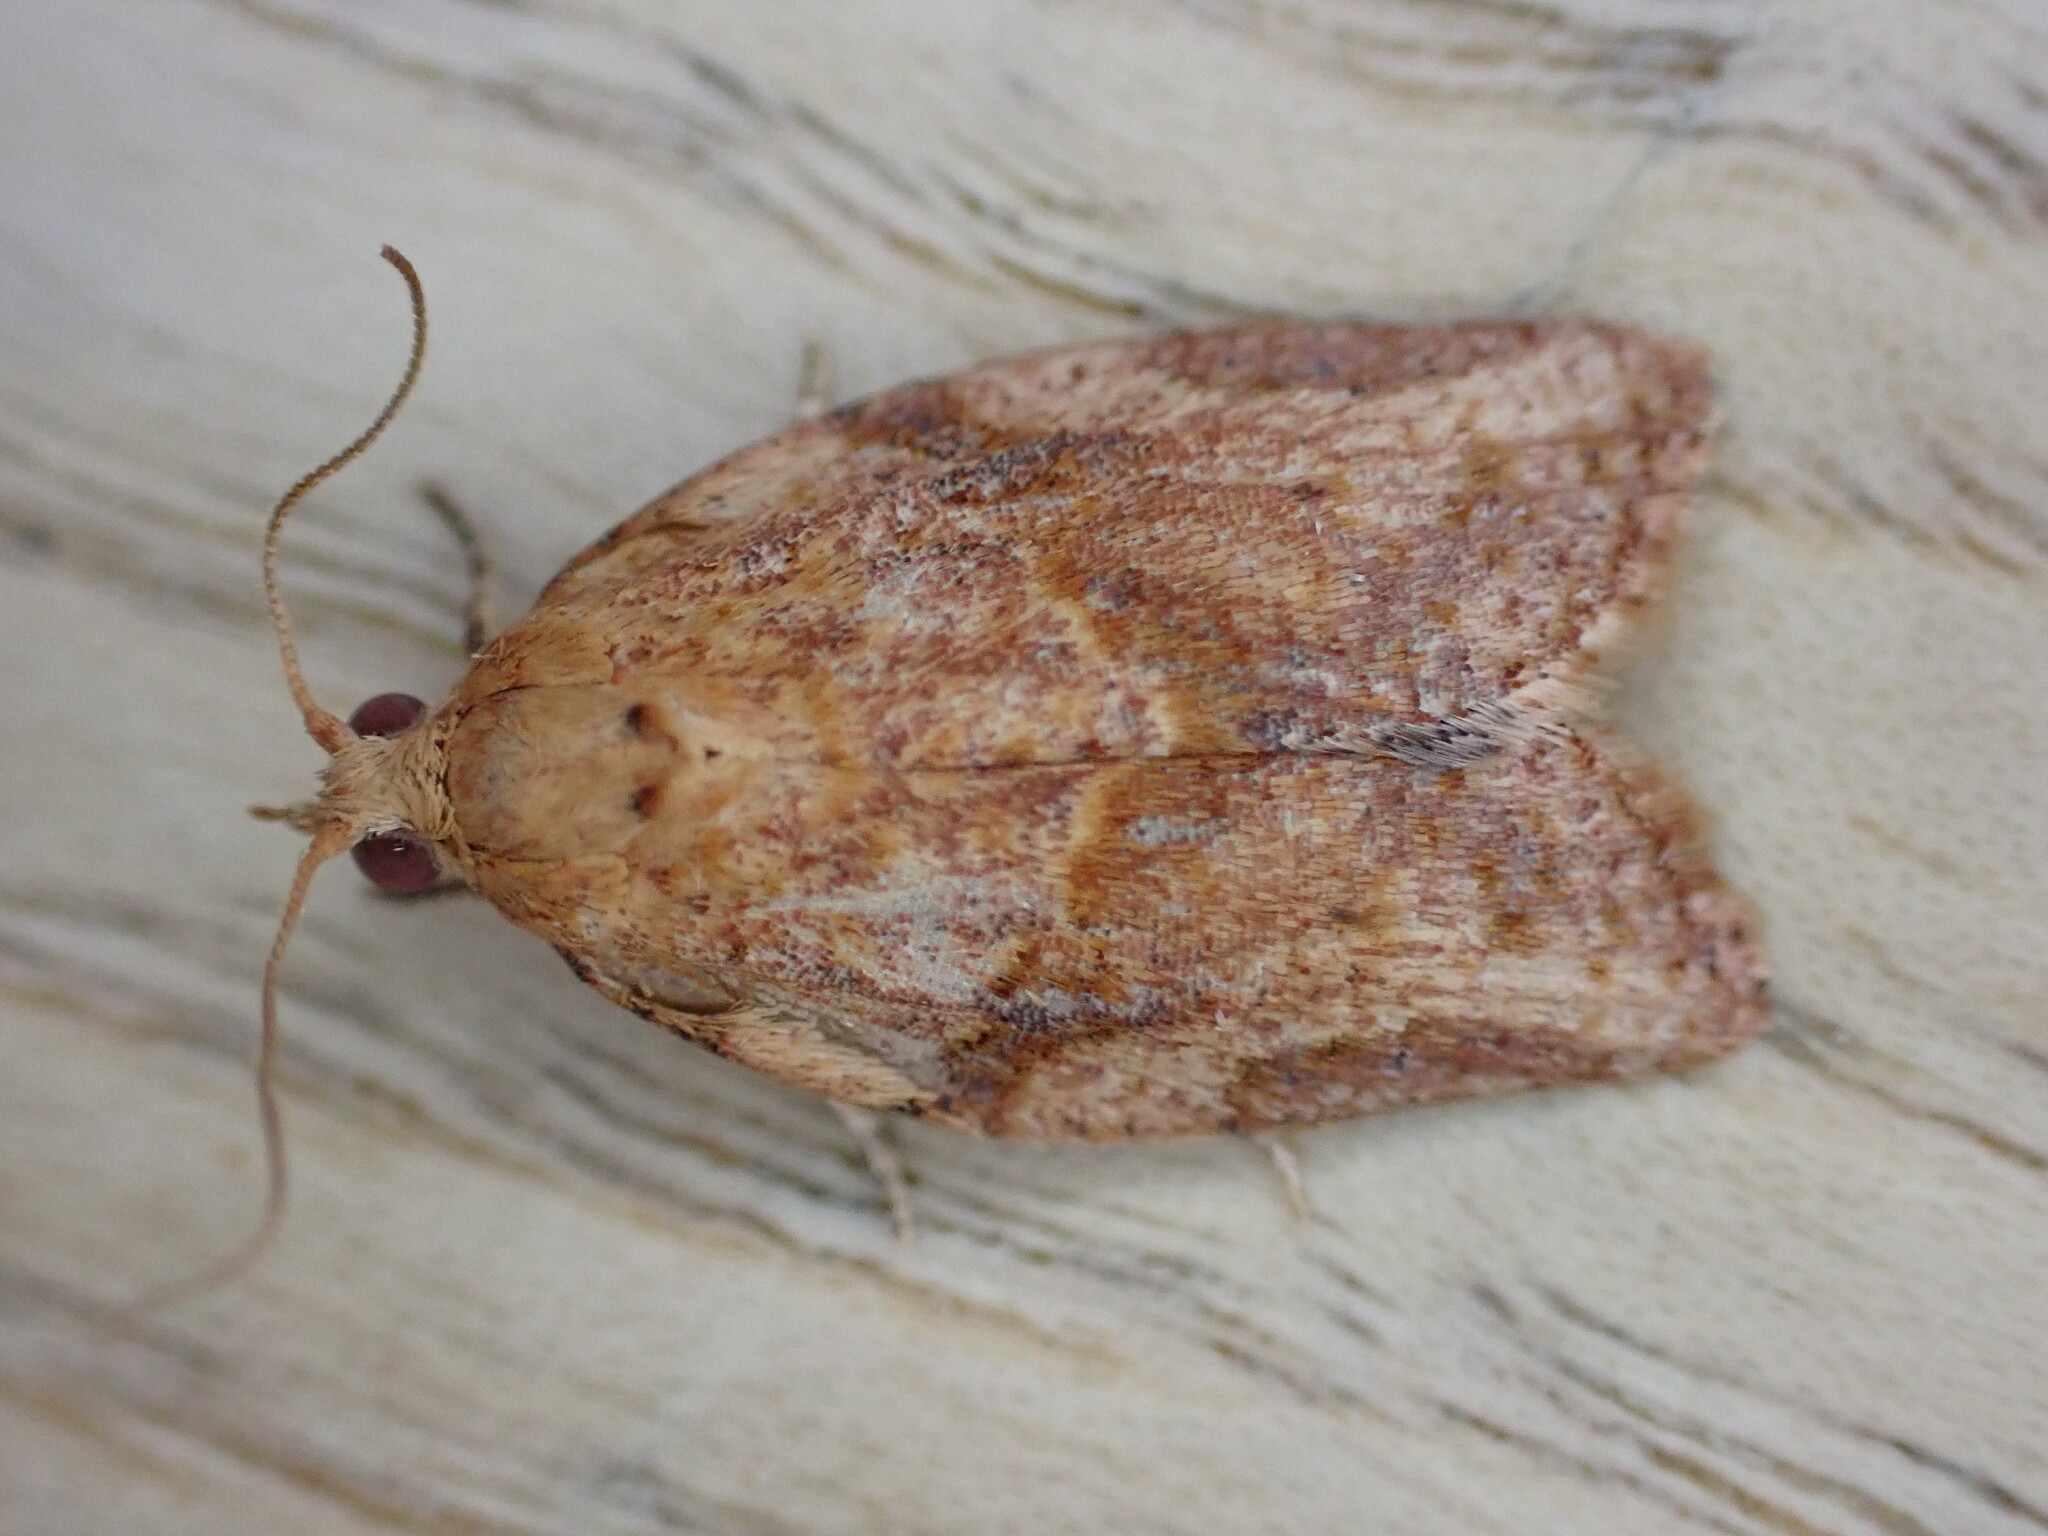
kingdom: Animalia
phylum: Arthropoda
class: Insecta
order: Lepidoptera
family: Tortricidae
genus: Epiphyas
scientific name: Epiphyas postvittana
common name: Light brown apple moth
